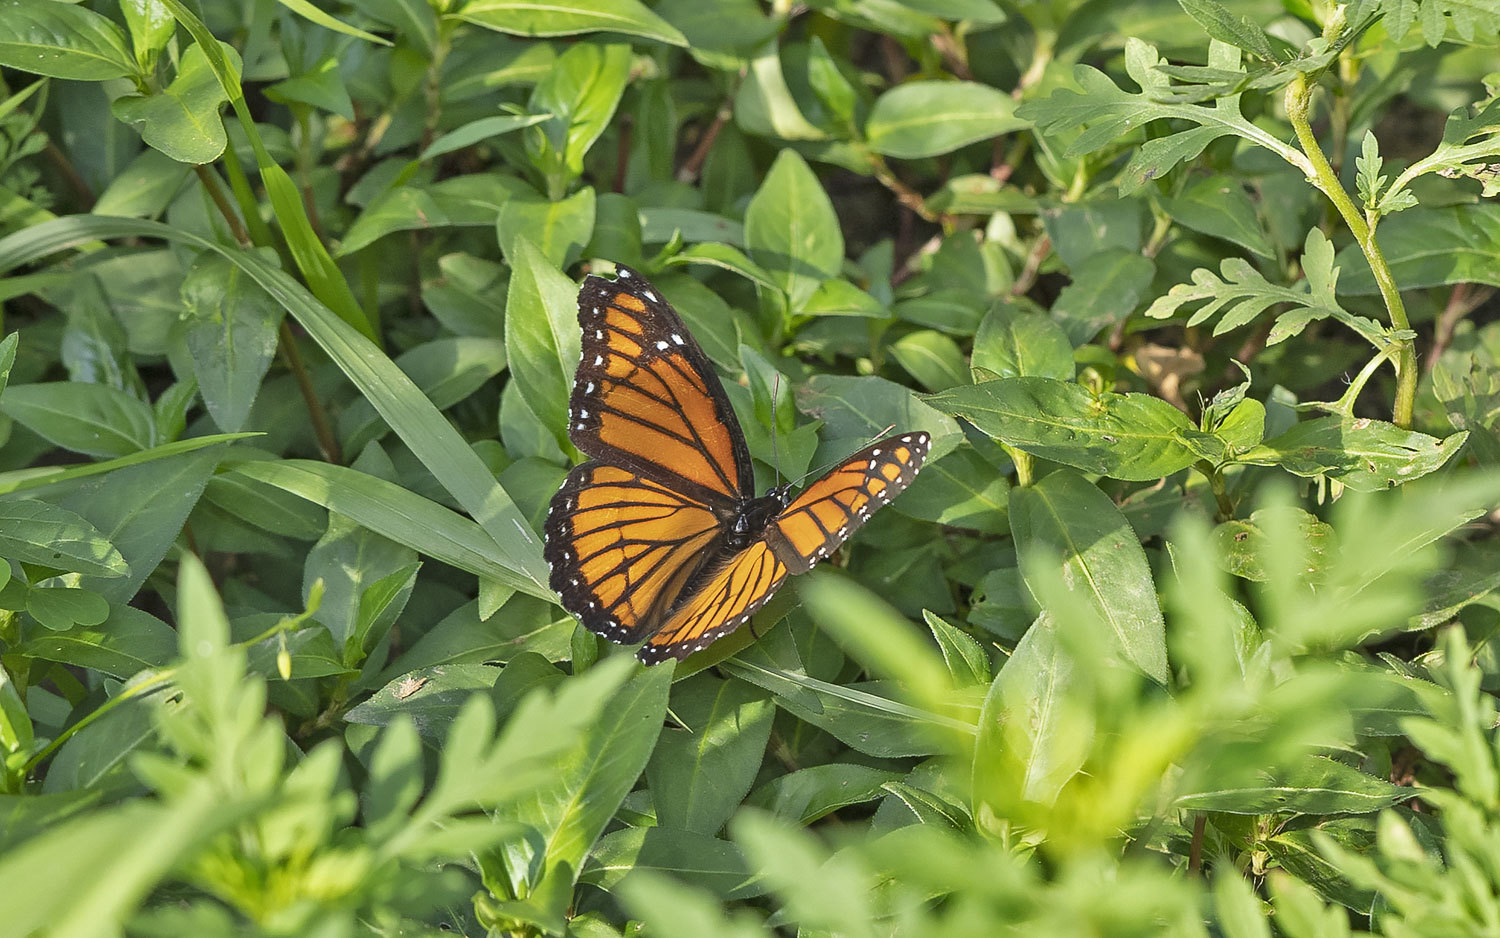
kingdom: Animalia
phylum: Arthropoda
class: Insecta
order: Lepidoptera
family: Nymphalidae
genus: Limenitis
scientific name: Limenitis archippus
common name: Viceroy
